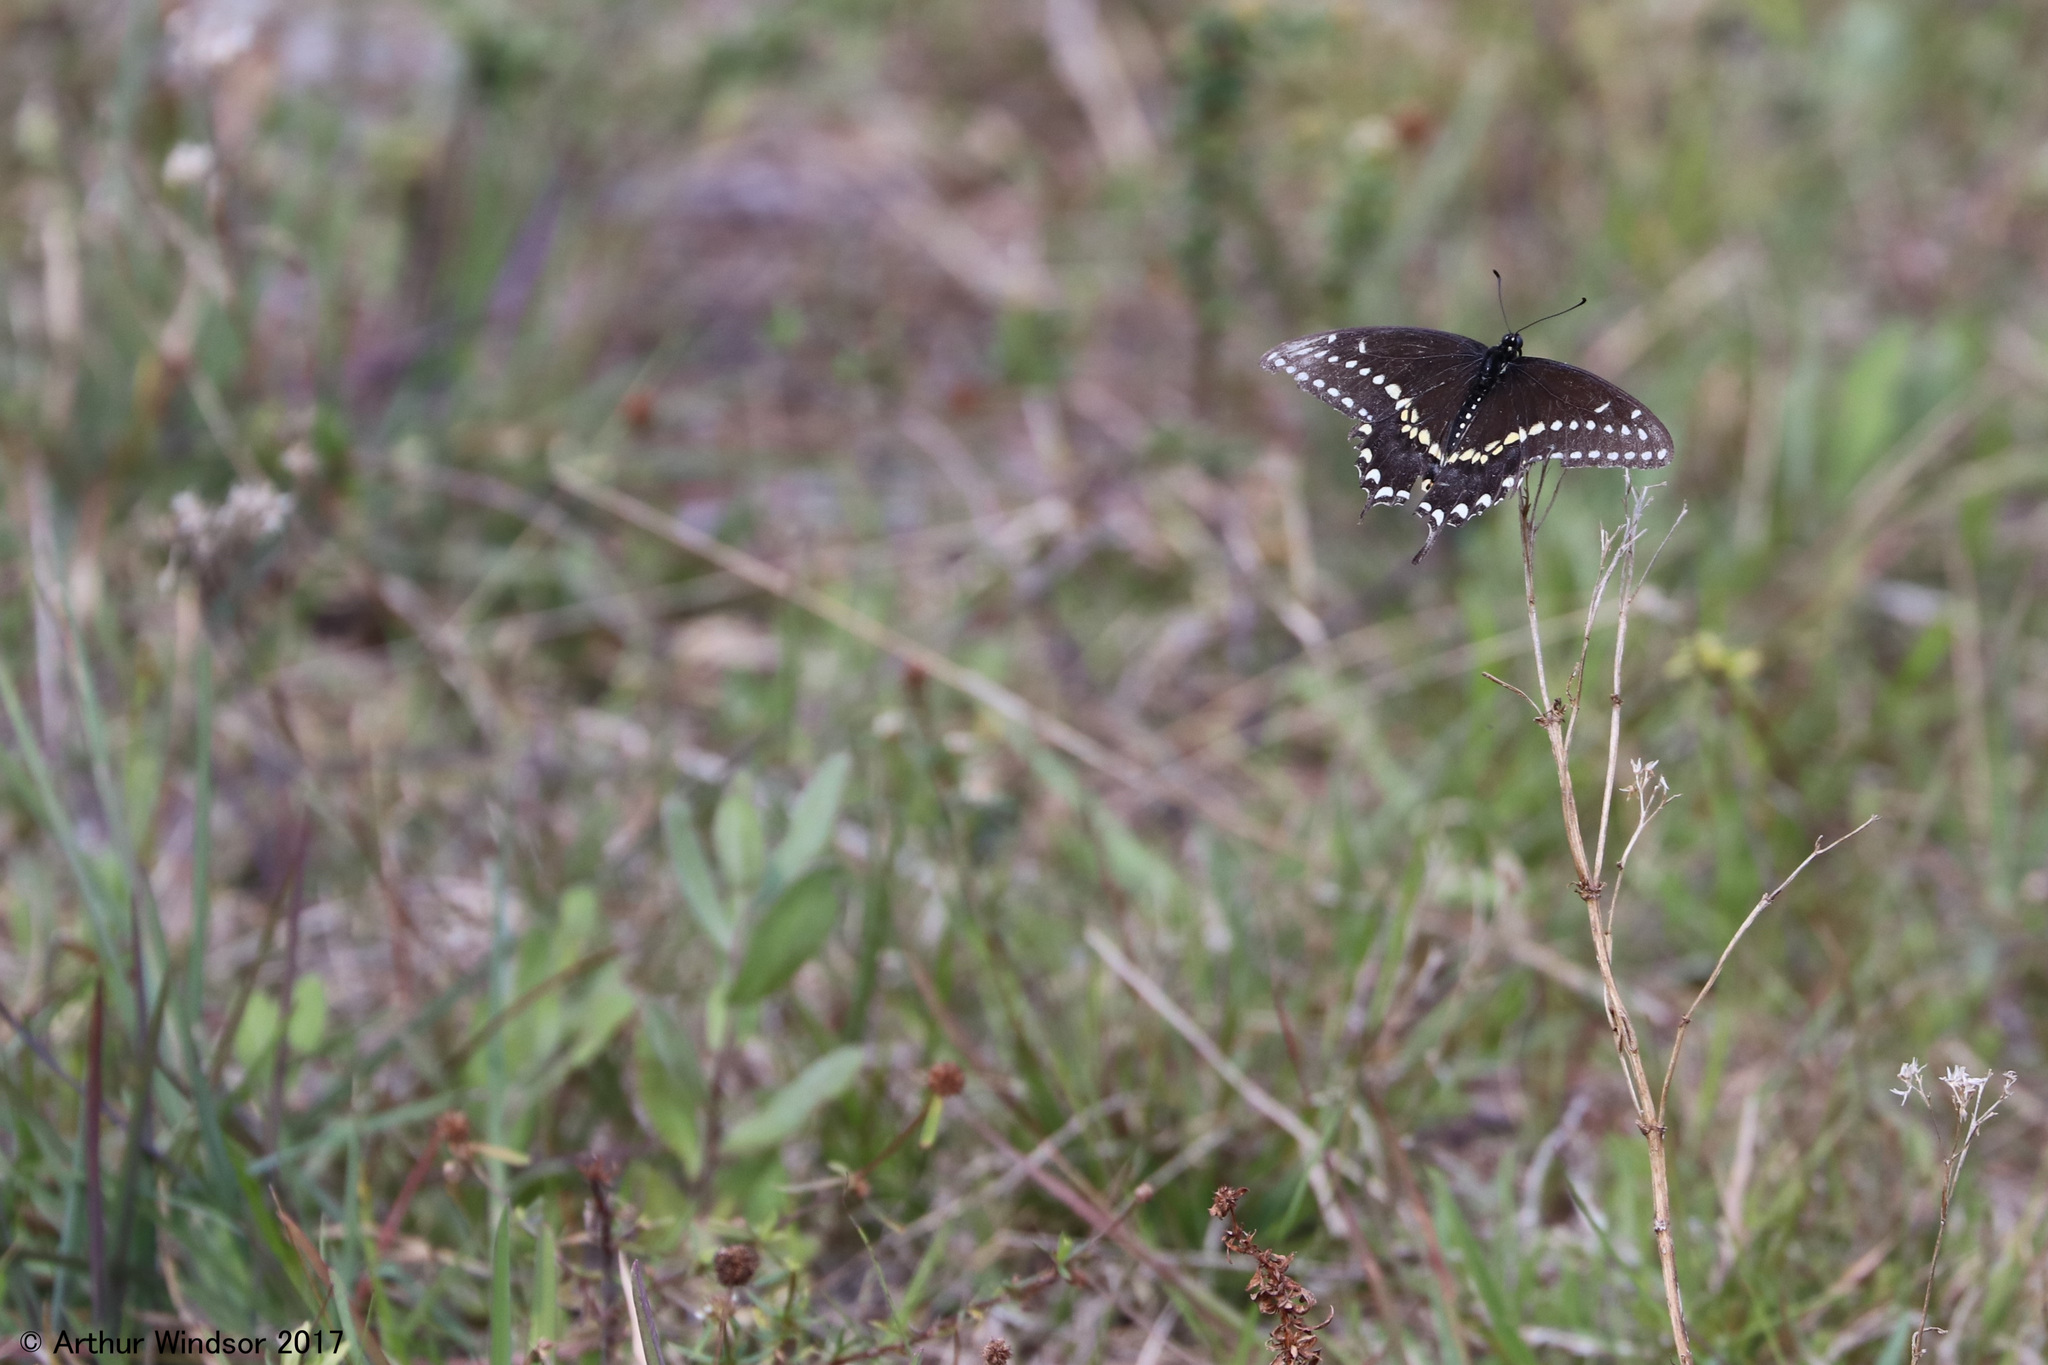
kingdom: Animalia
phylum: Arthropoda
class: Insecta
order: Lepidoptera
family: Papilionidae
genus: Papilio
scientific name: Papilio polyxenes
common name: Black swallowtail
